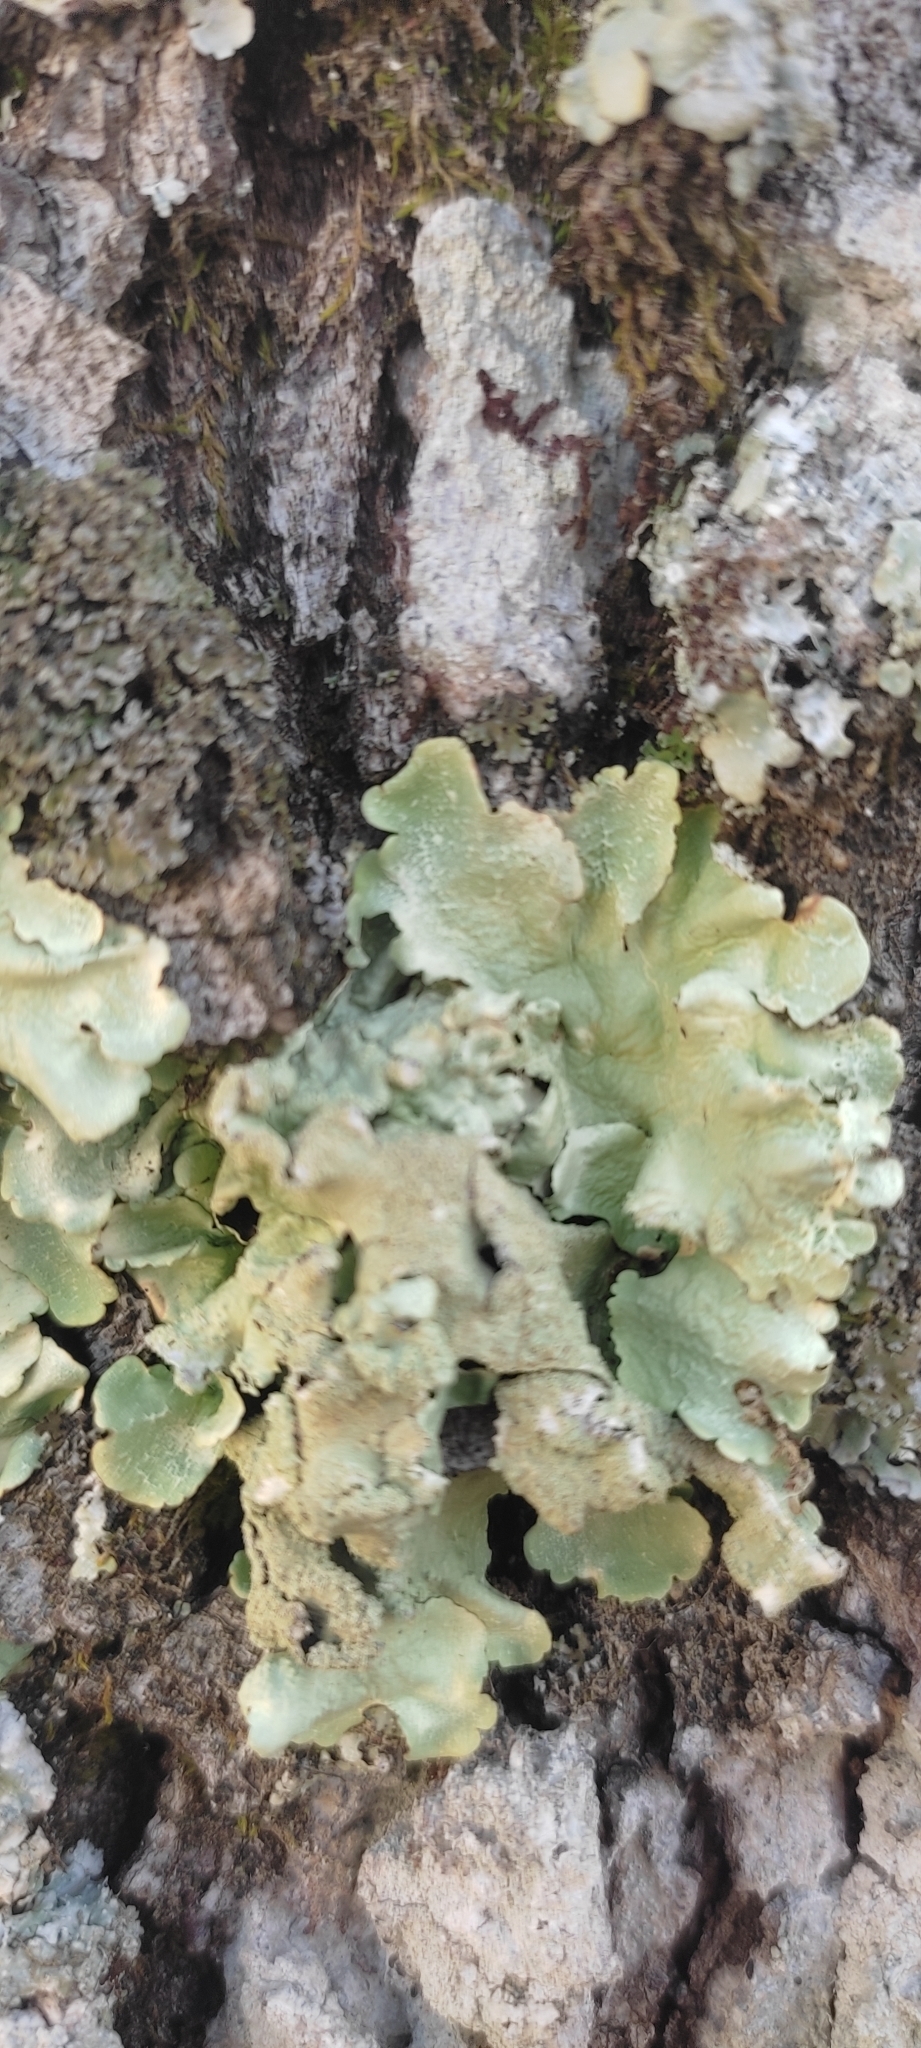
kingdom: Fungi
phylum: Ascomycota
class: Lecanoromycetes
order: Lecanorales
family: Parmeliaceae
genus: Flavoparmelia
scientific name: Flavoparmelia caperata
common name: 40-mile per hour lichen
